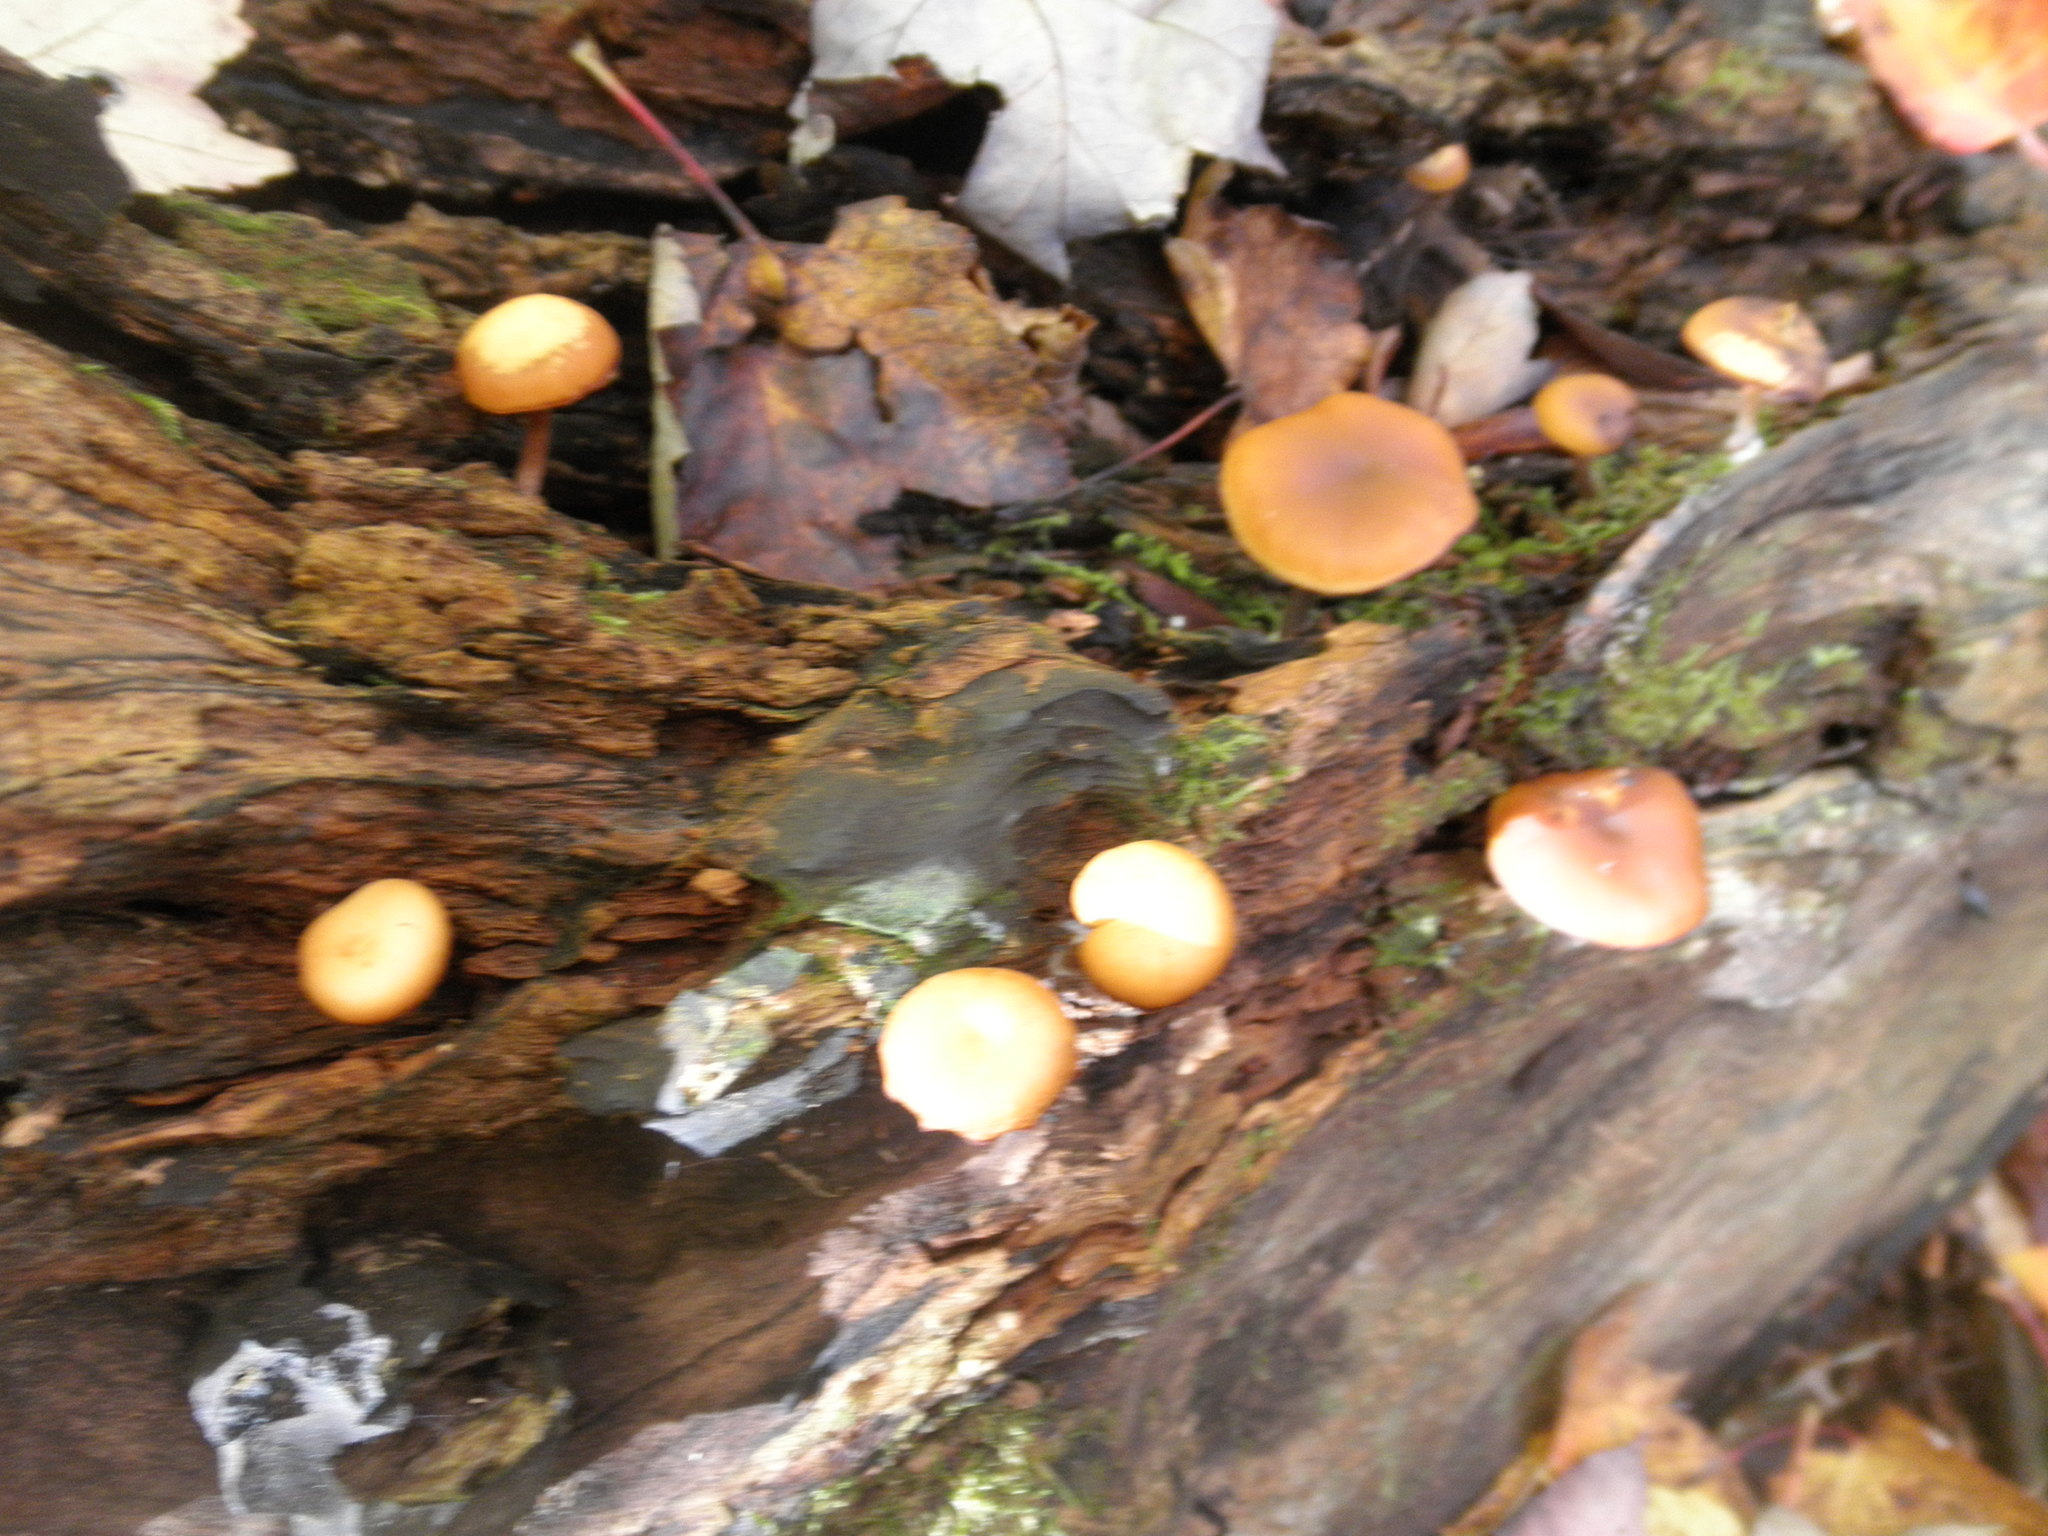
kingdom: Fungi
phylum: Basidiomycota
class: Agaricomycetes
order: Agaricales
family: Hymenogastraceae
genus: Galerina
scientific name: Galerina marginata
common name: Funeral bell
